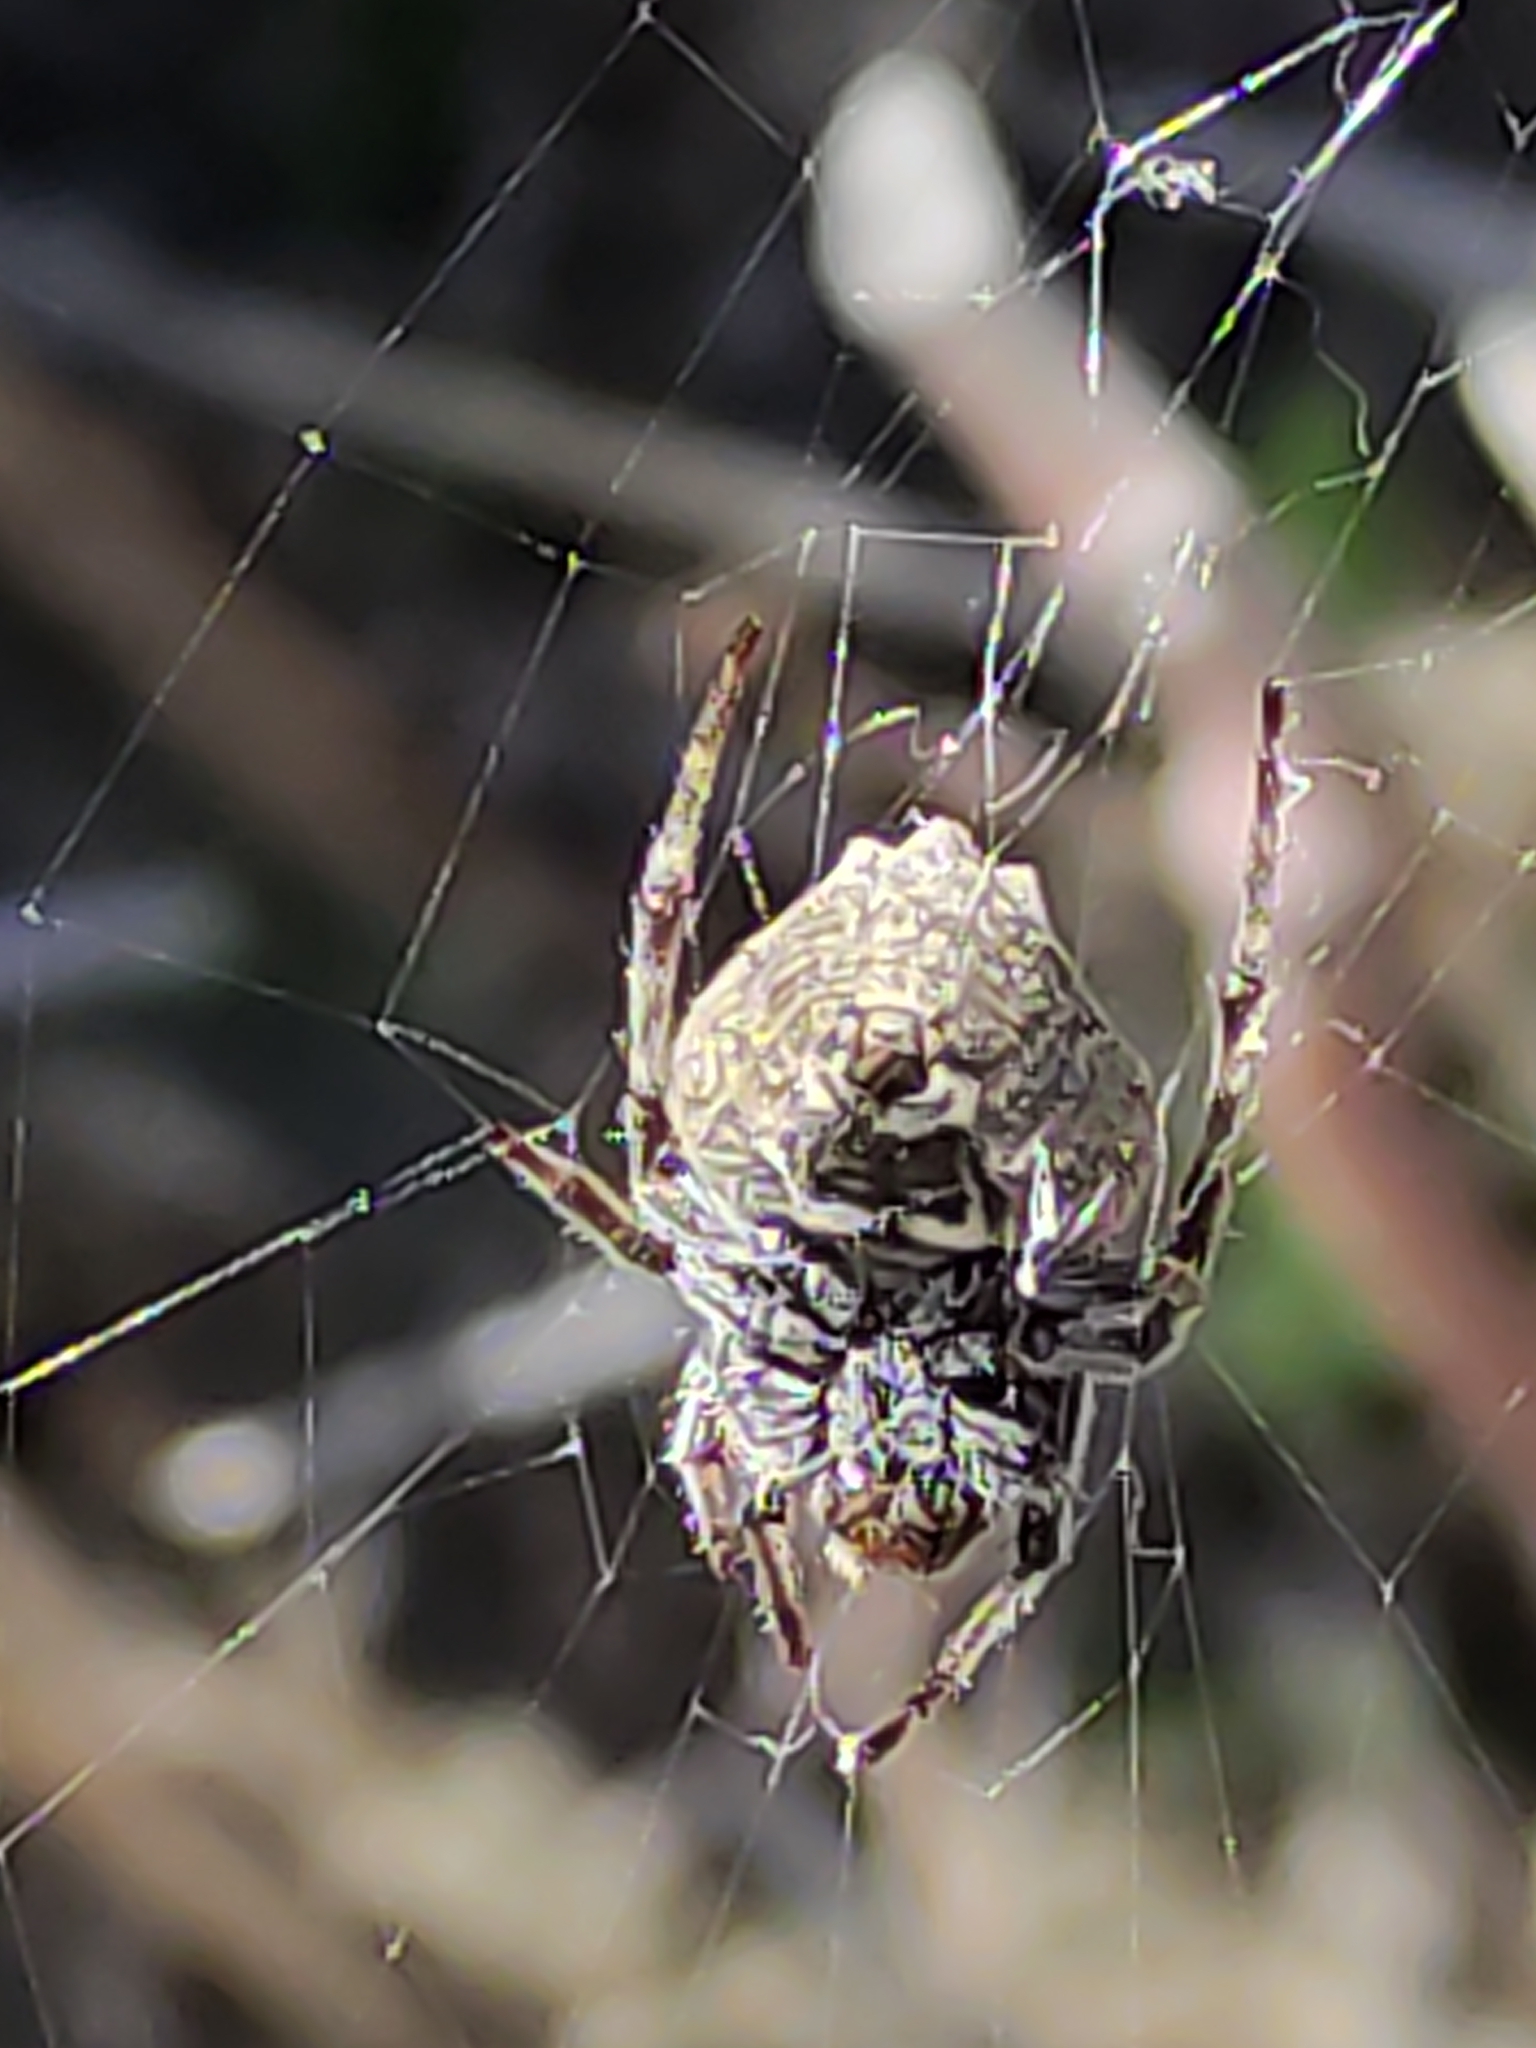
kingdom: Animalia
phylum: Arthropoda
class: Arachnida
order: Araneae
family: Araneidae
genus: Eriophora
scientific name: Eriophora pustulosa
